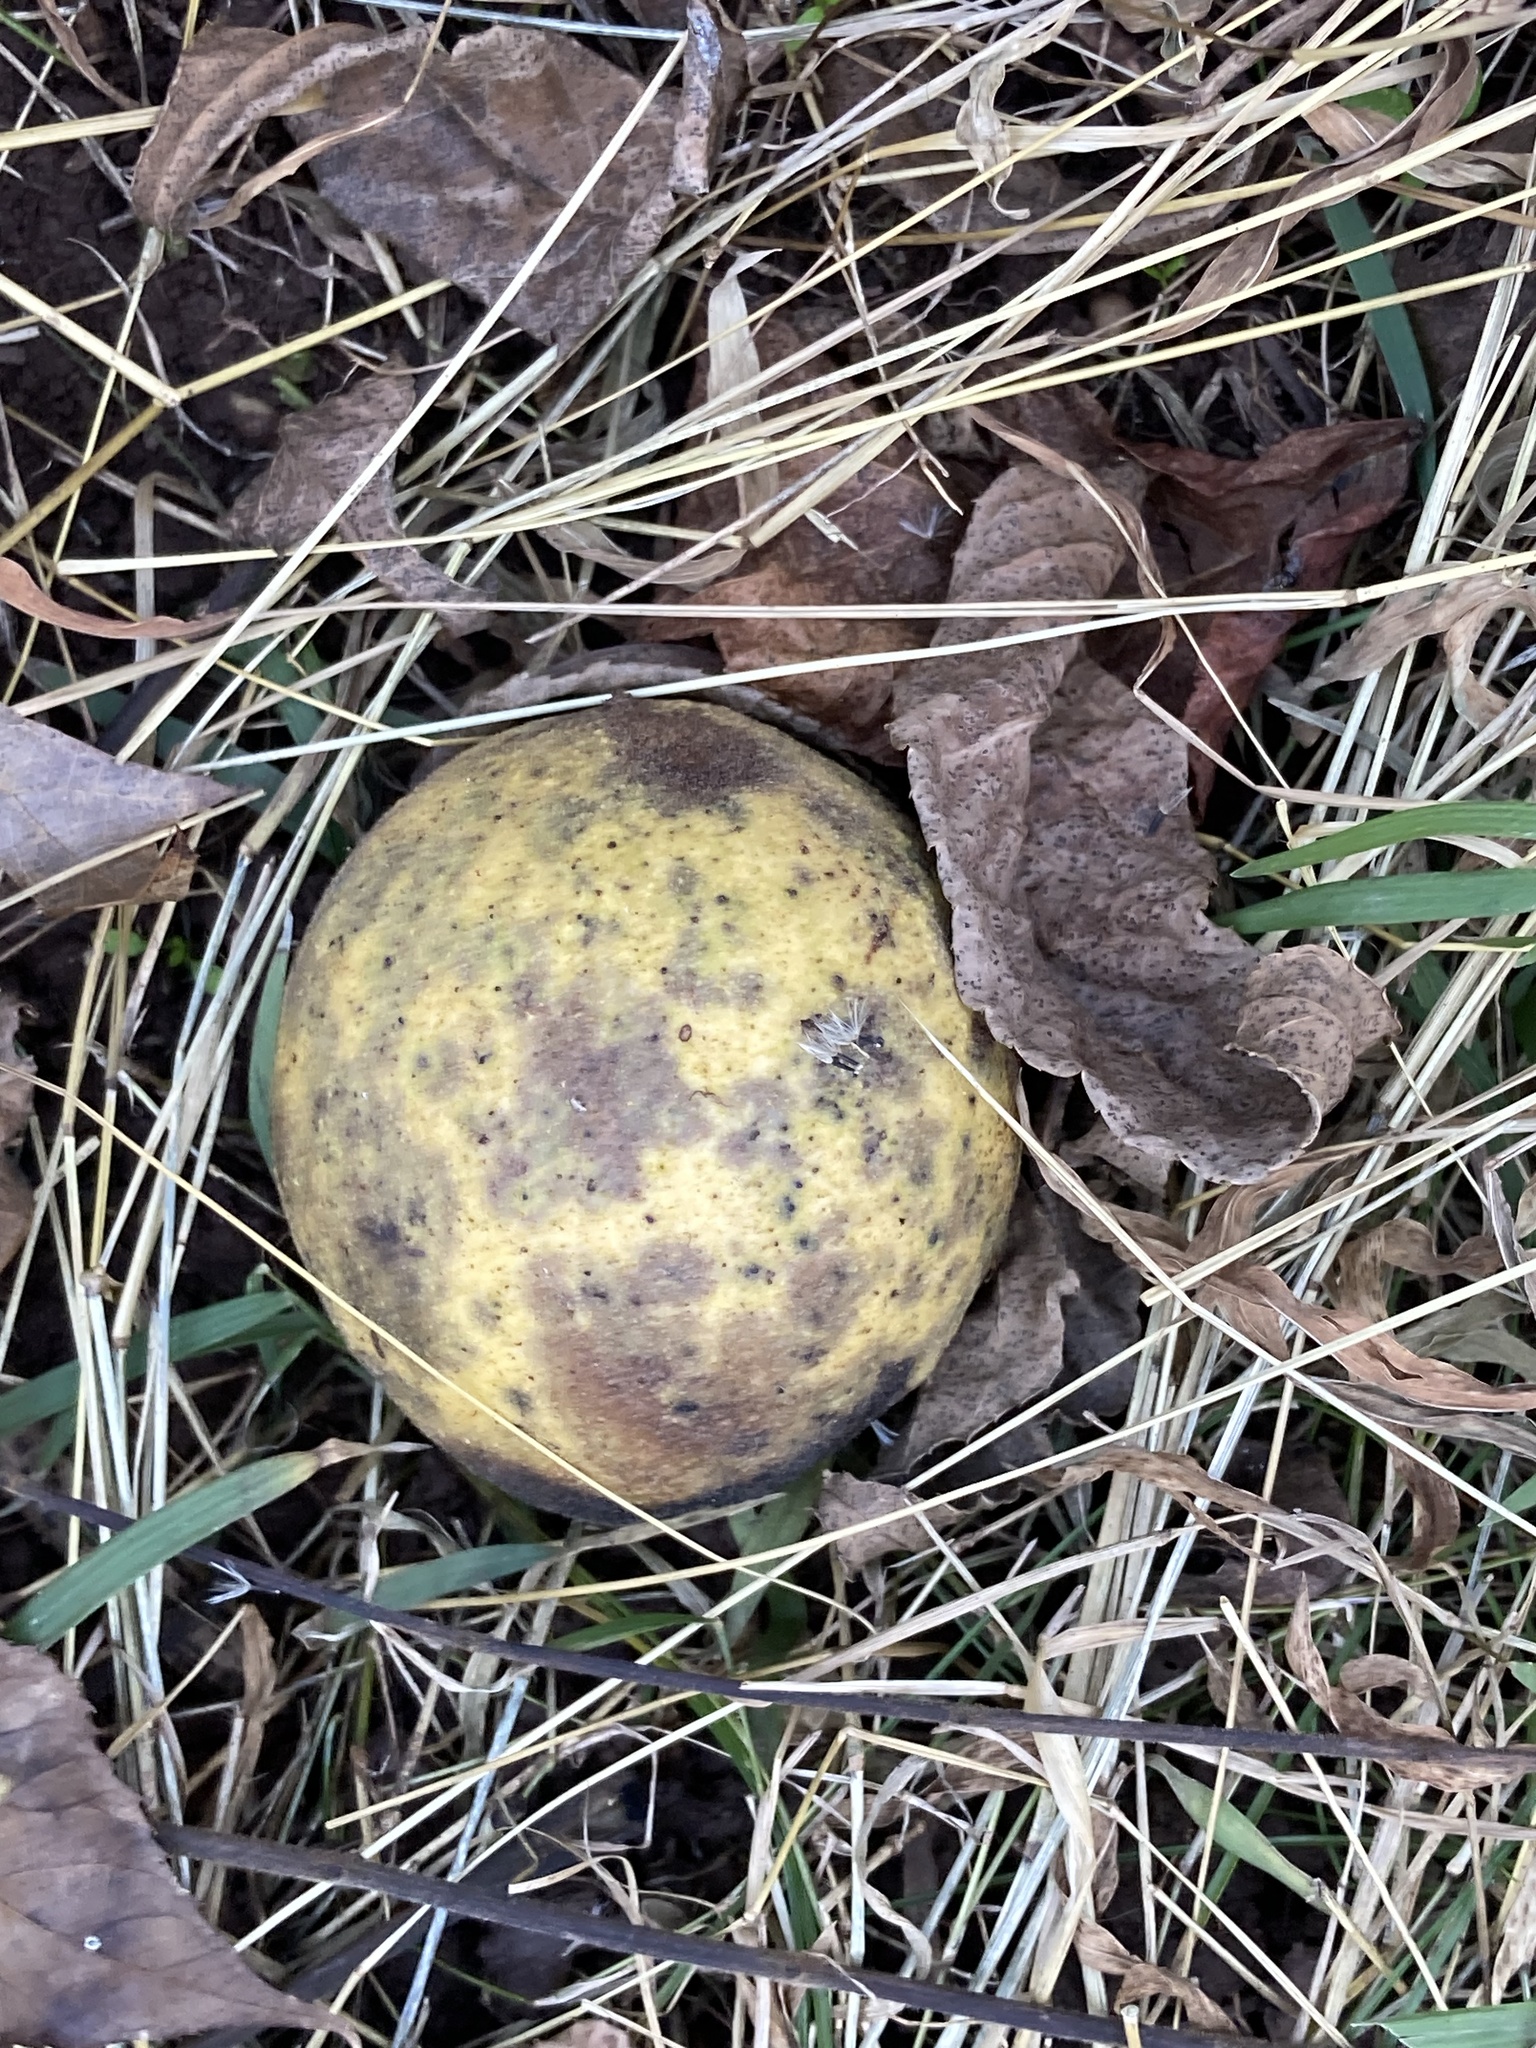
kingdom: Plantae
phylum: Tracheophyta
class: Magnoliopsida
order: Fagales
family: Juglandaceae
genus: Juglans
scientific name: Juglans nigra
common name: Black walnut
